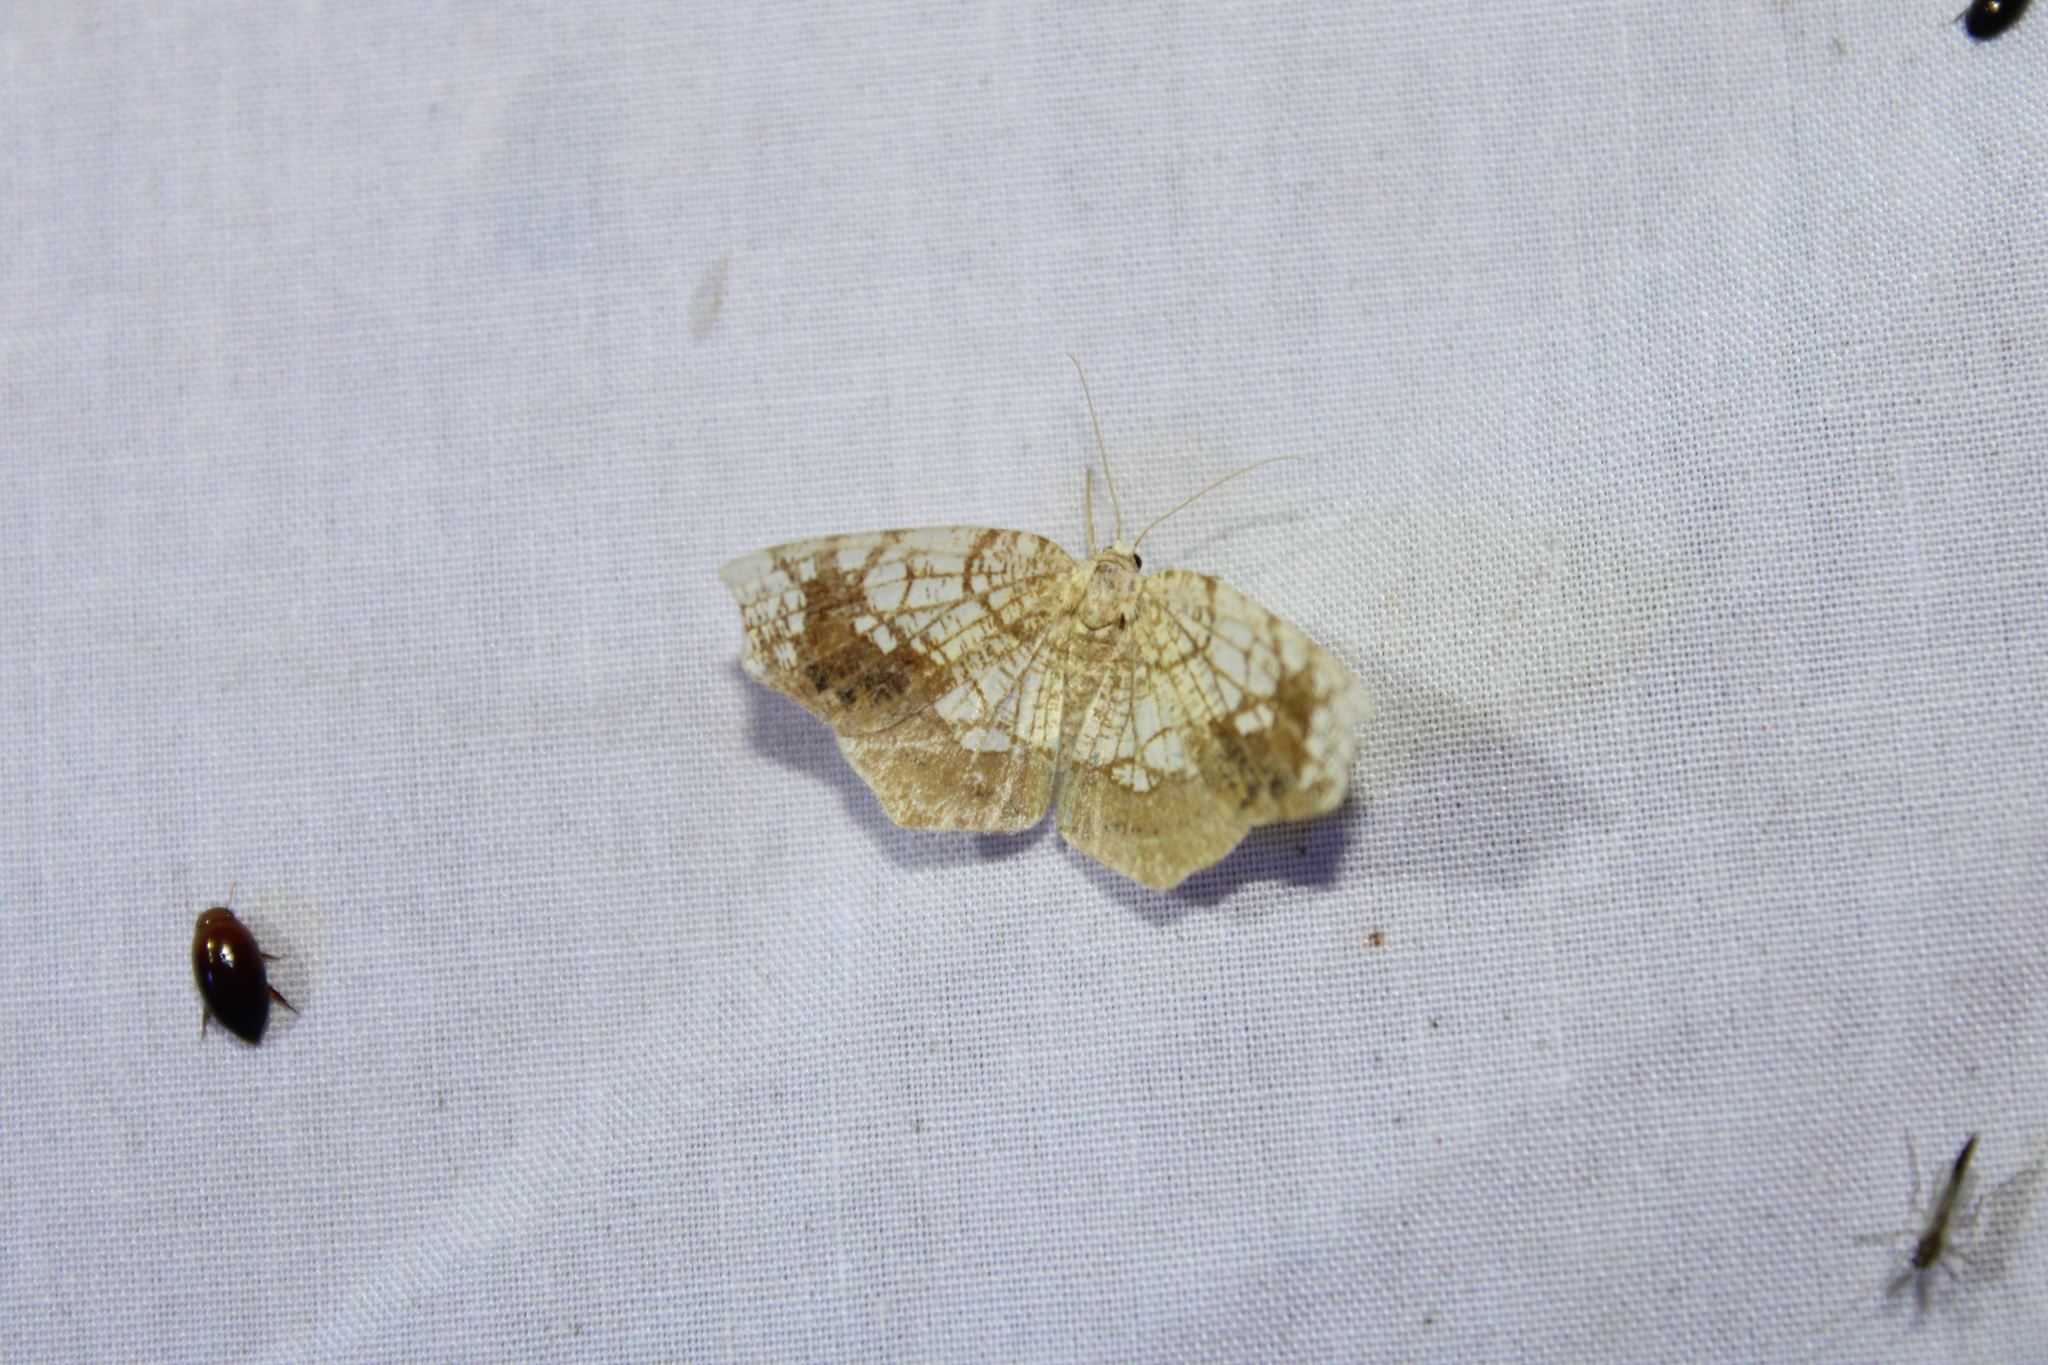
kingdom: Animalia
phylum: Arthropoda
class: Insecta
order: Lepidoptera
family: Geometridae
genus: Nematocampa
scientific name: Nematocampa resistaria
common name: Horned spanworm moth
